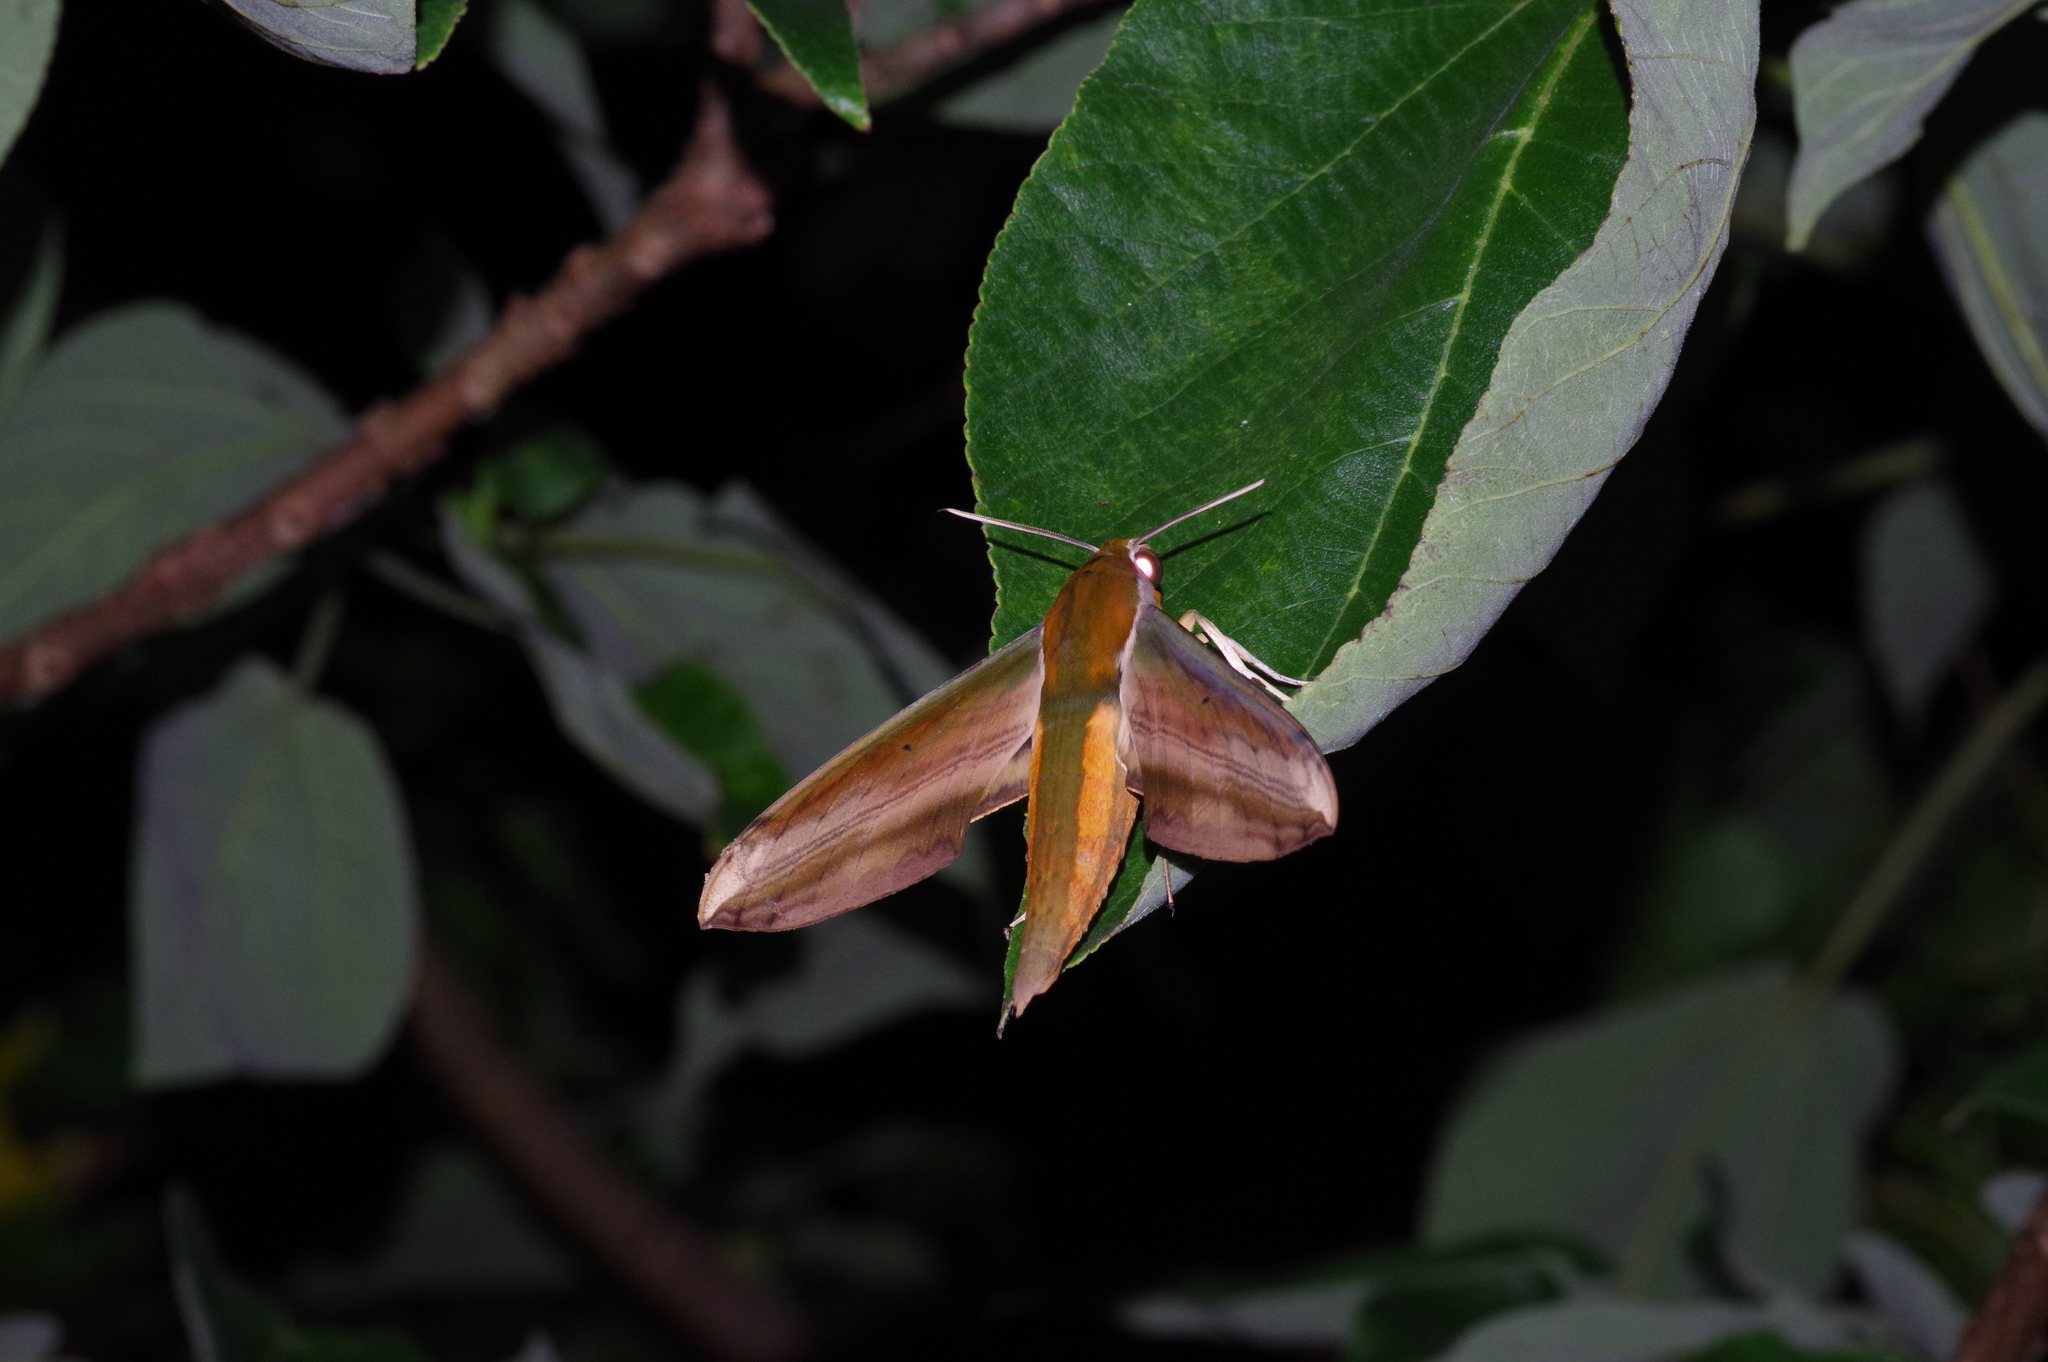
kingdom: Animalia
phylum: Arthropoda
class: Insecta
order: Lepidoptera
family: Sphingidae
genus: Theretra
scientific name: Theretra nessus
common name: Yam hawk moth
